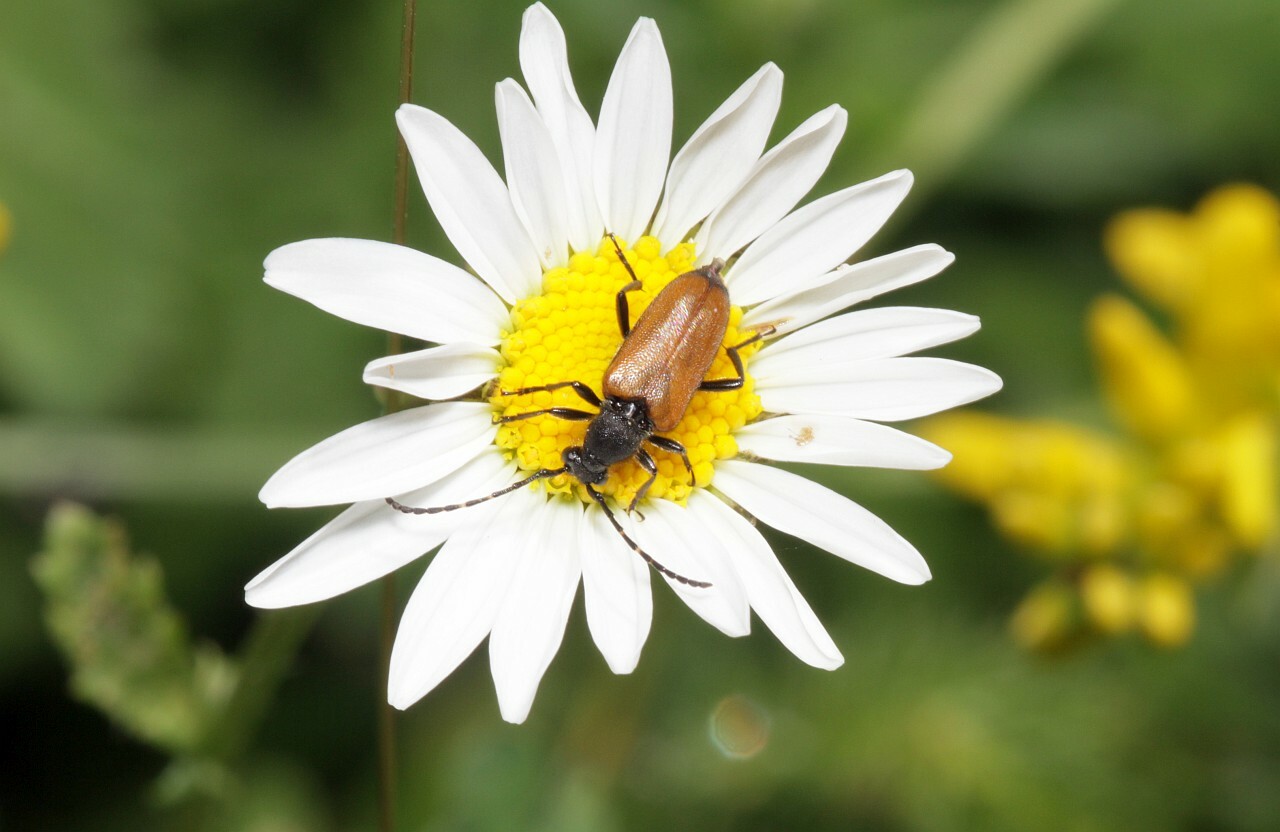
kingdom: Animalia
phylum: Arthropoda
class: Insecta
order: Coleoptera
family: Cerambycidae
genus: Paracorymbia
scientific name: Paracorymbia maculicornis
